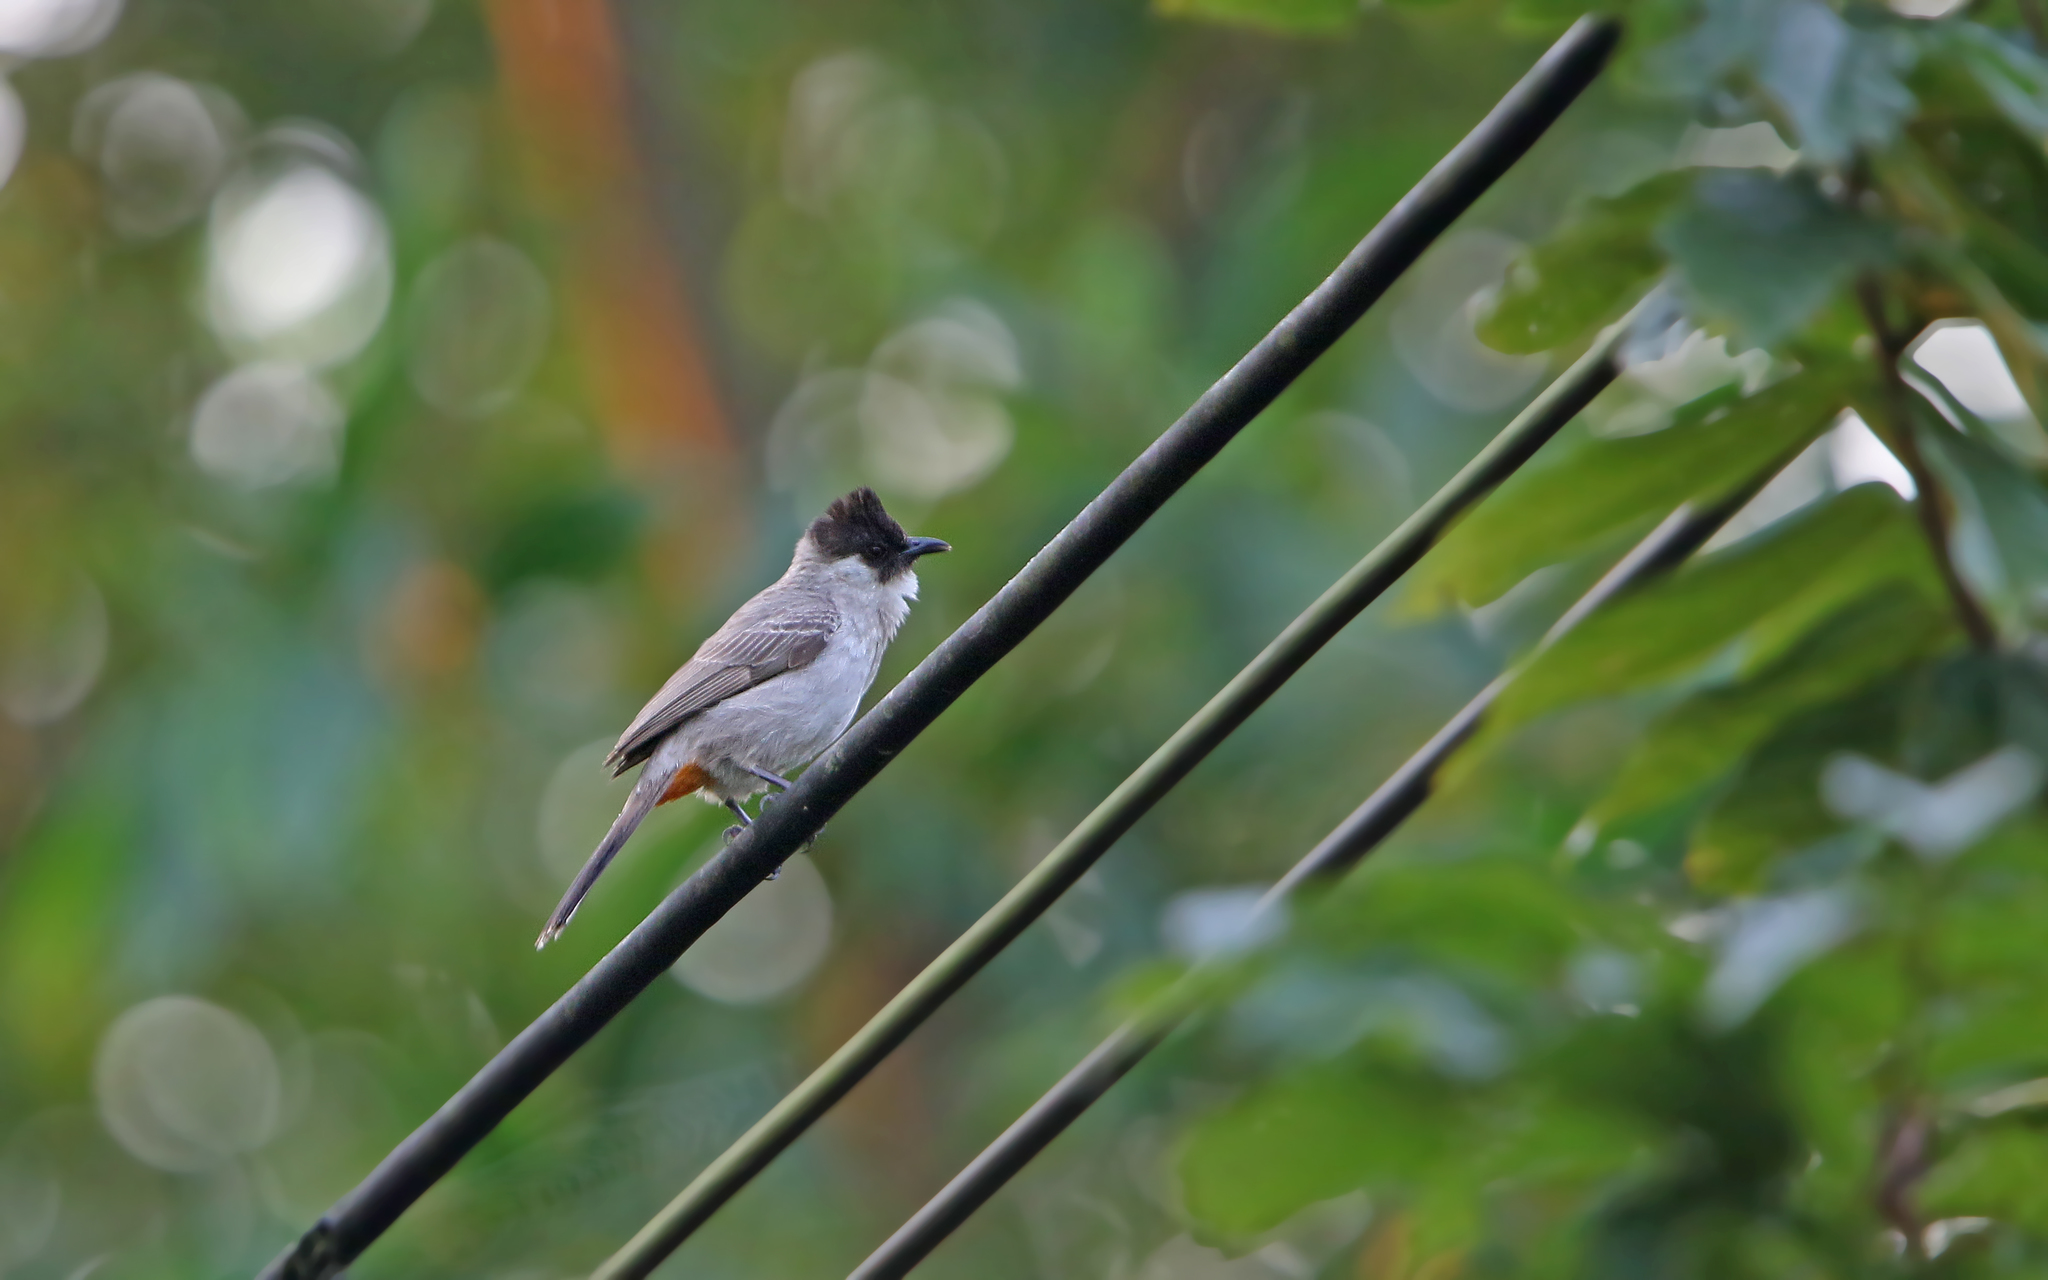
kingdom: Animalia
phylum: Chordata
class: Aves
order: Passeriformes
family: Pycnonotidae
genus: Pycnonotus
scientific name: Pycnonotus aurigaster
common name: Sooty-headed bulbul
